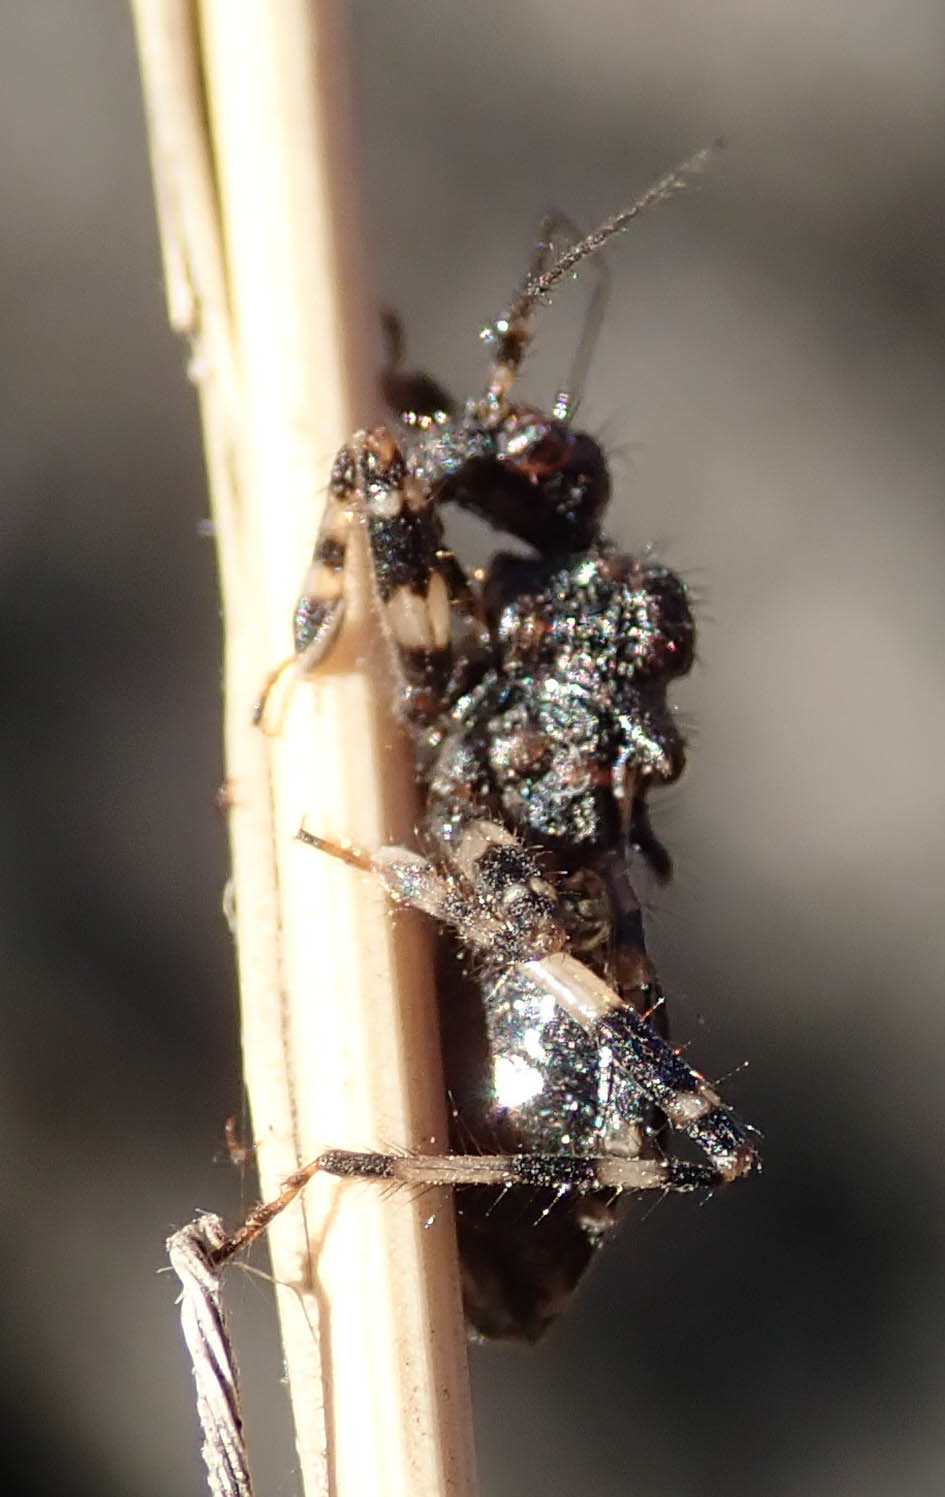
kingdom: Animalia
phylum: Arthropoda
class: Insecta
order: Hemiptera
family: Reduviidae
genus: Ectmetacanthus
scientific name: Ectmetacanthus annulipes
